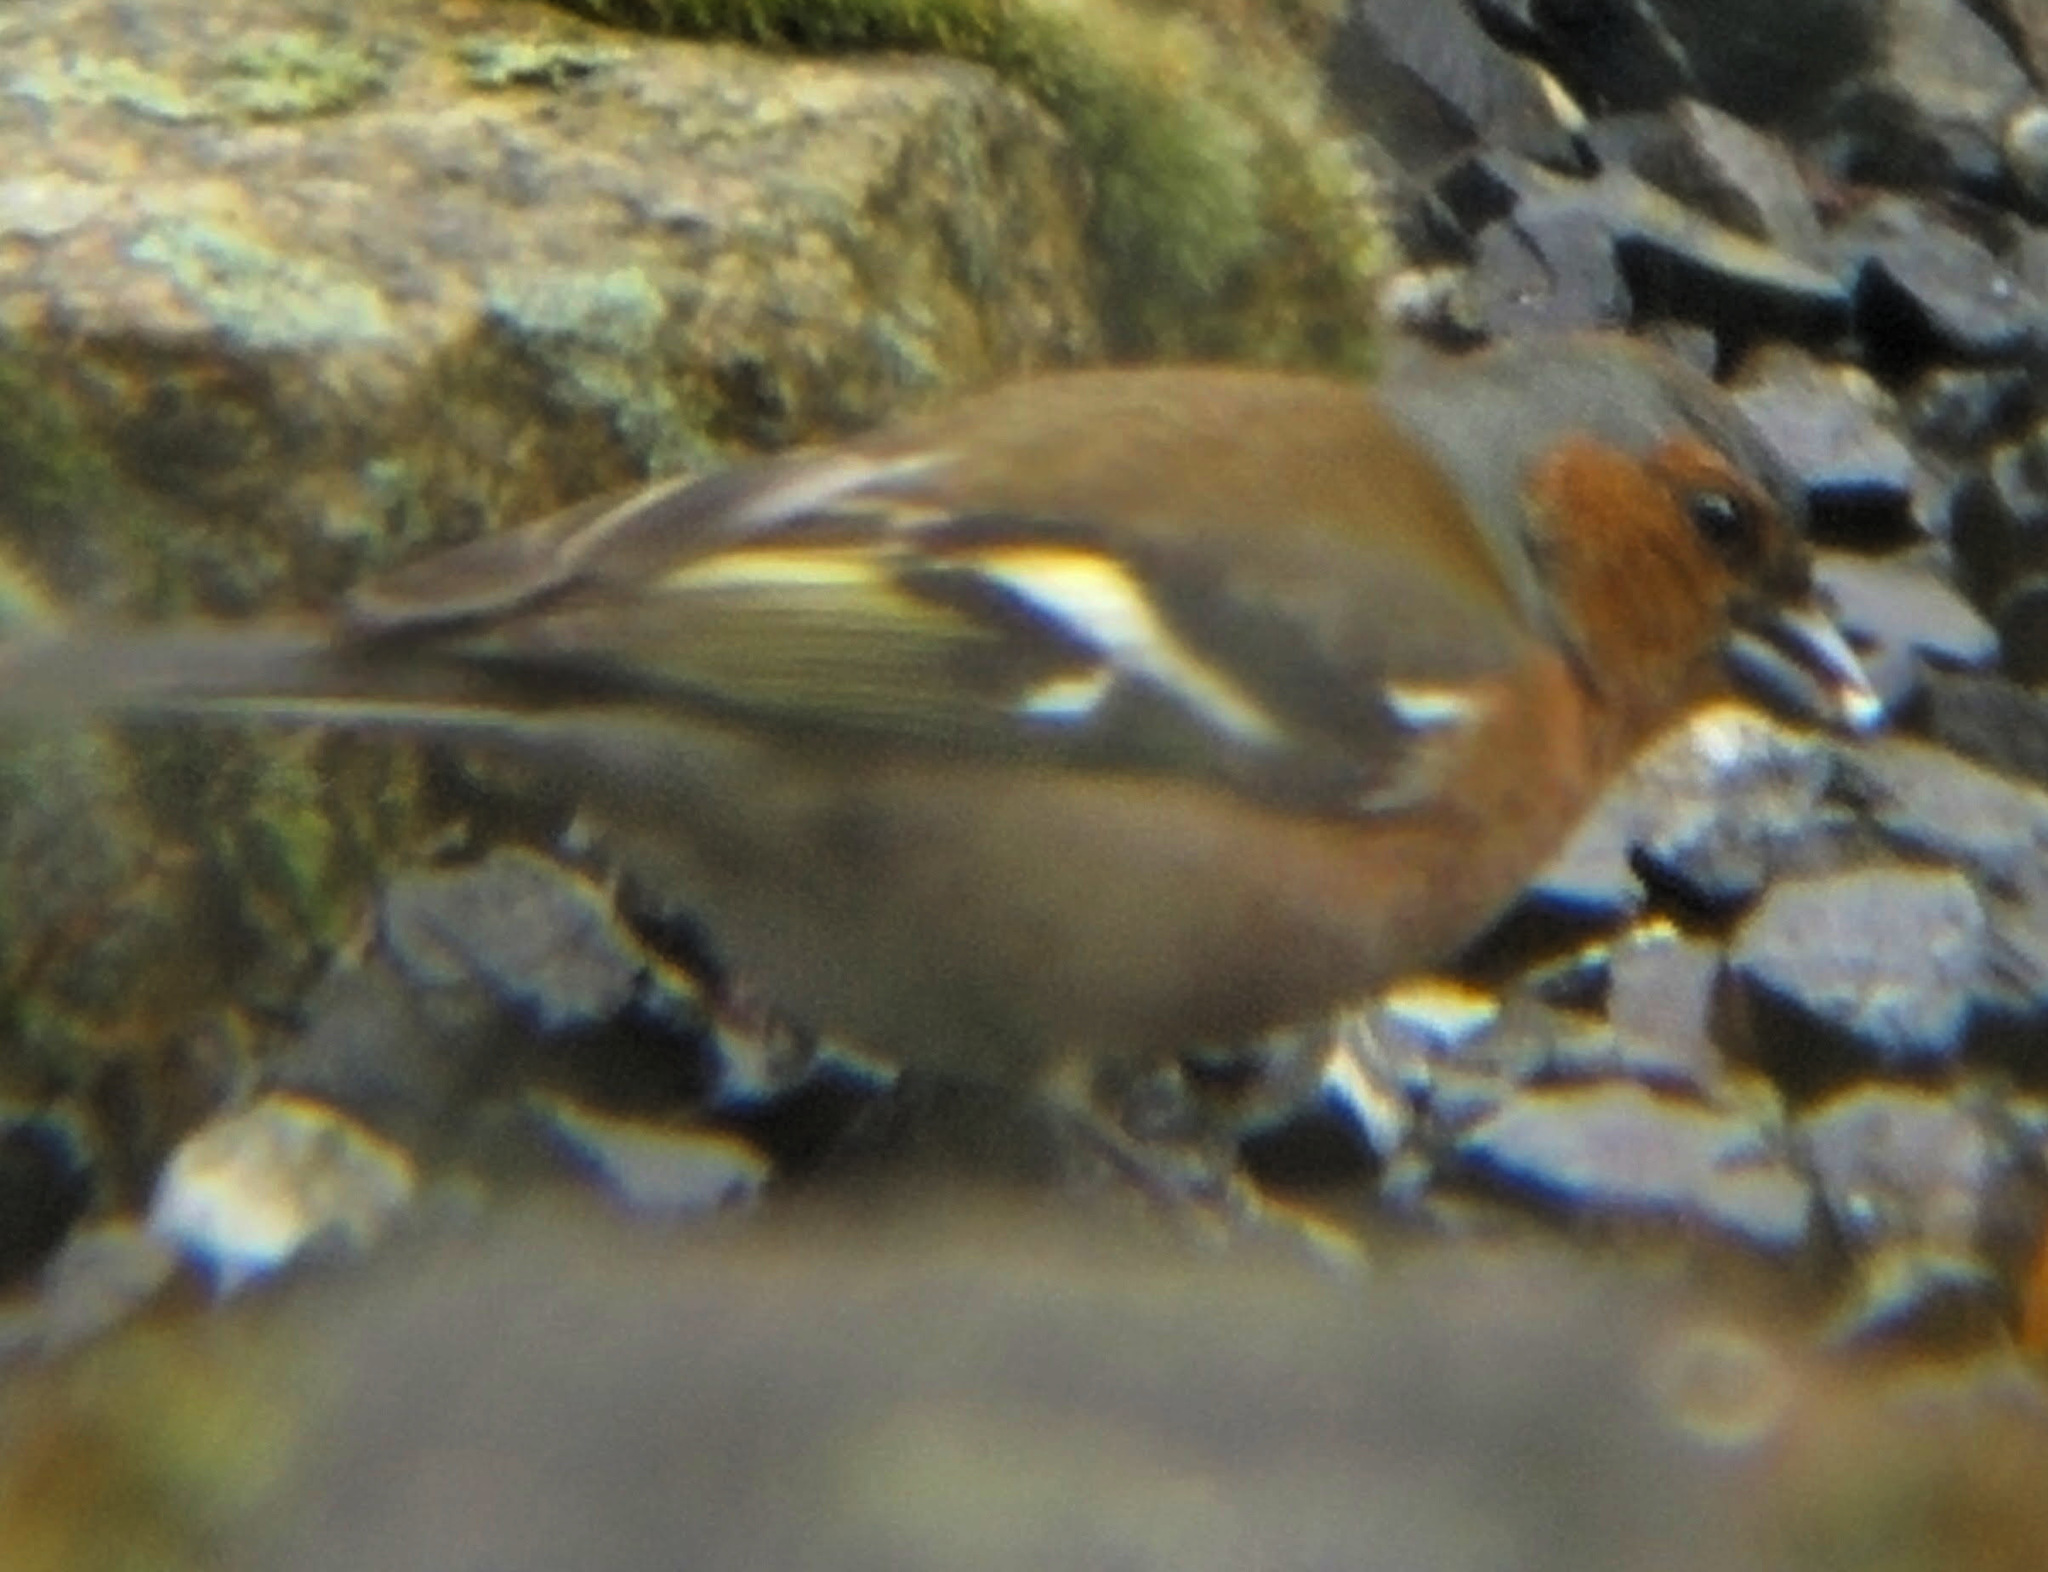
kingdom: Animalia
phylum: Chordata
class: Aves
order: Passeriformes
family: Fringillidae
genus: Fringilla
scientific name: Fringilla coelebs
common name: Common chaffinch
